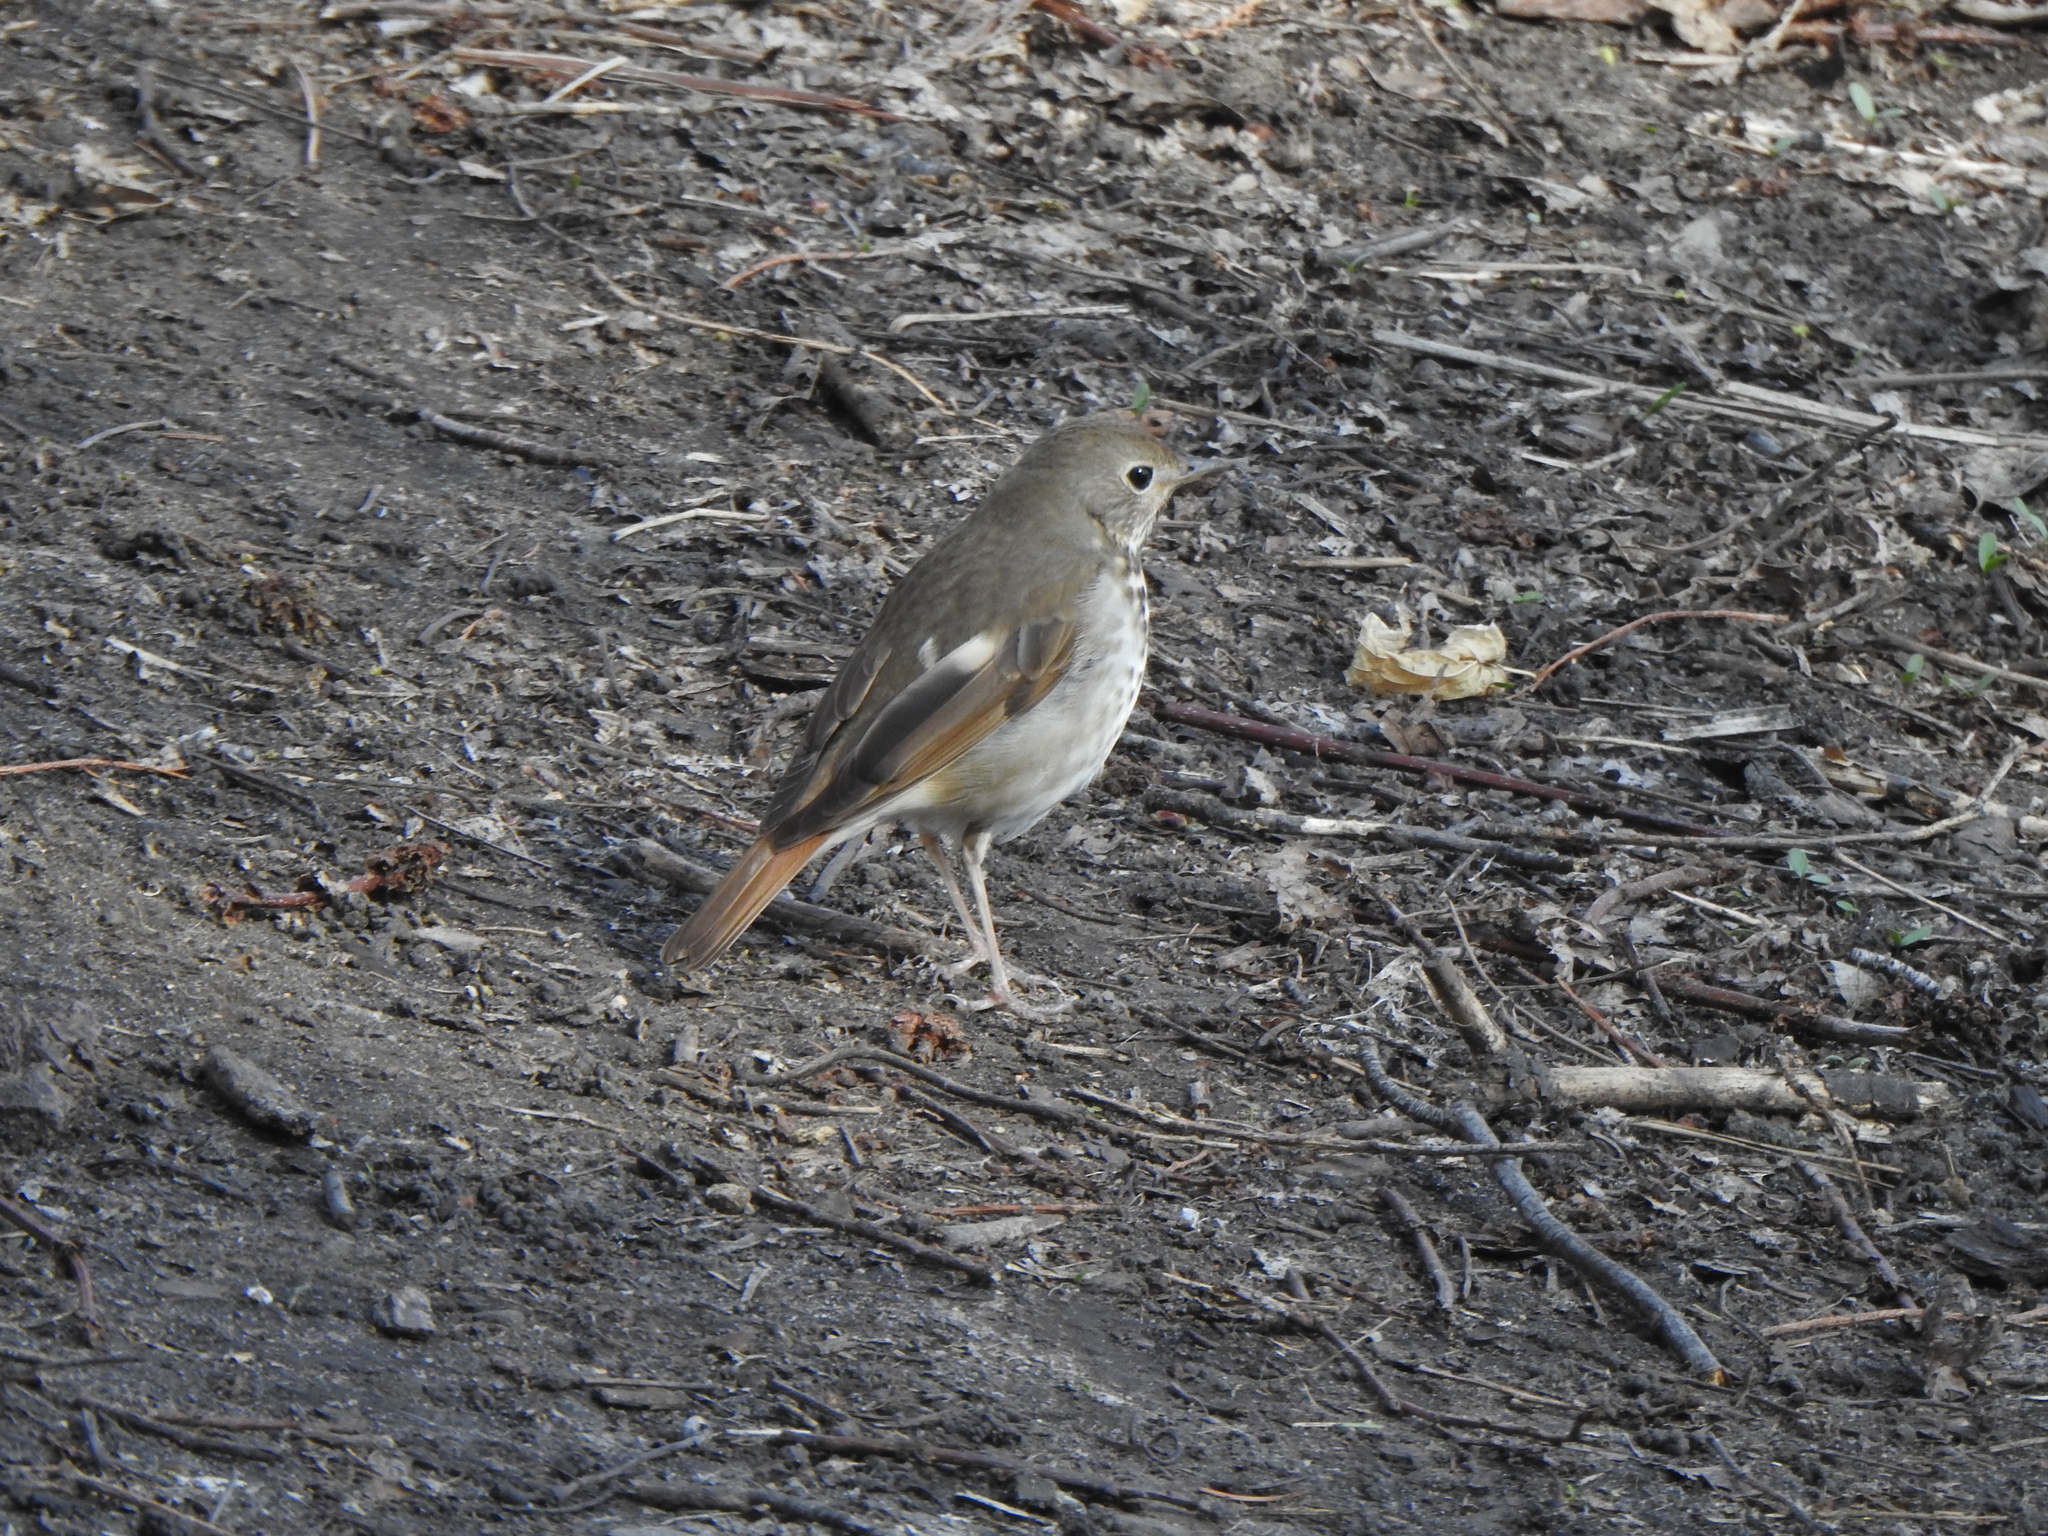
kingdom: Animalia
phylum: Chordata
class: Aves
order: Passeriformes
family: Turdidae
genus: Catharus
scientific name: Catharus guttatus
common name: Hermit thrush
